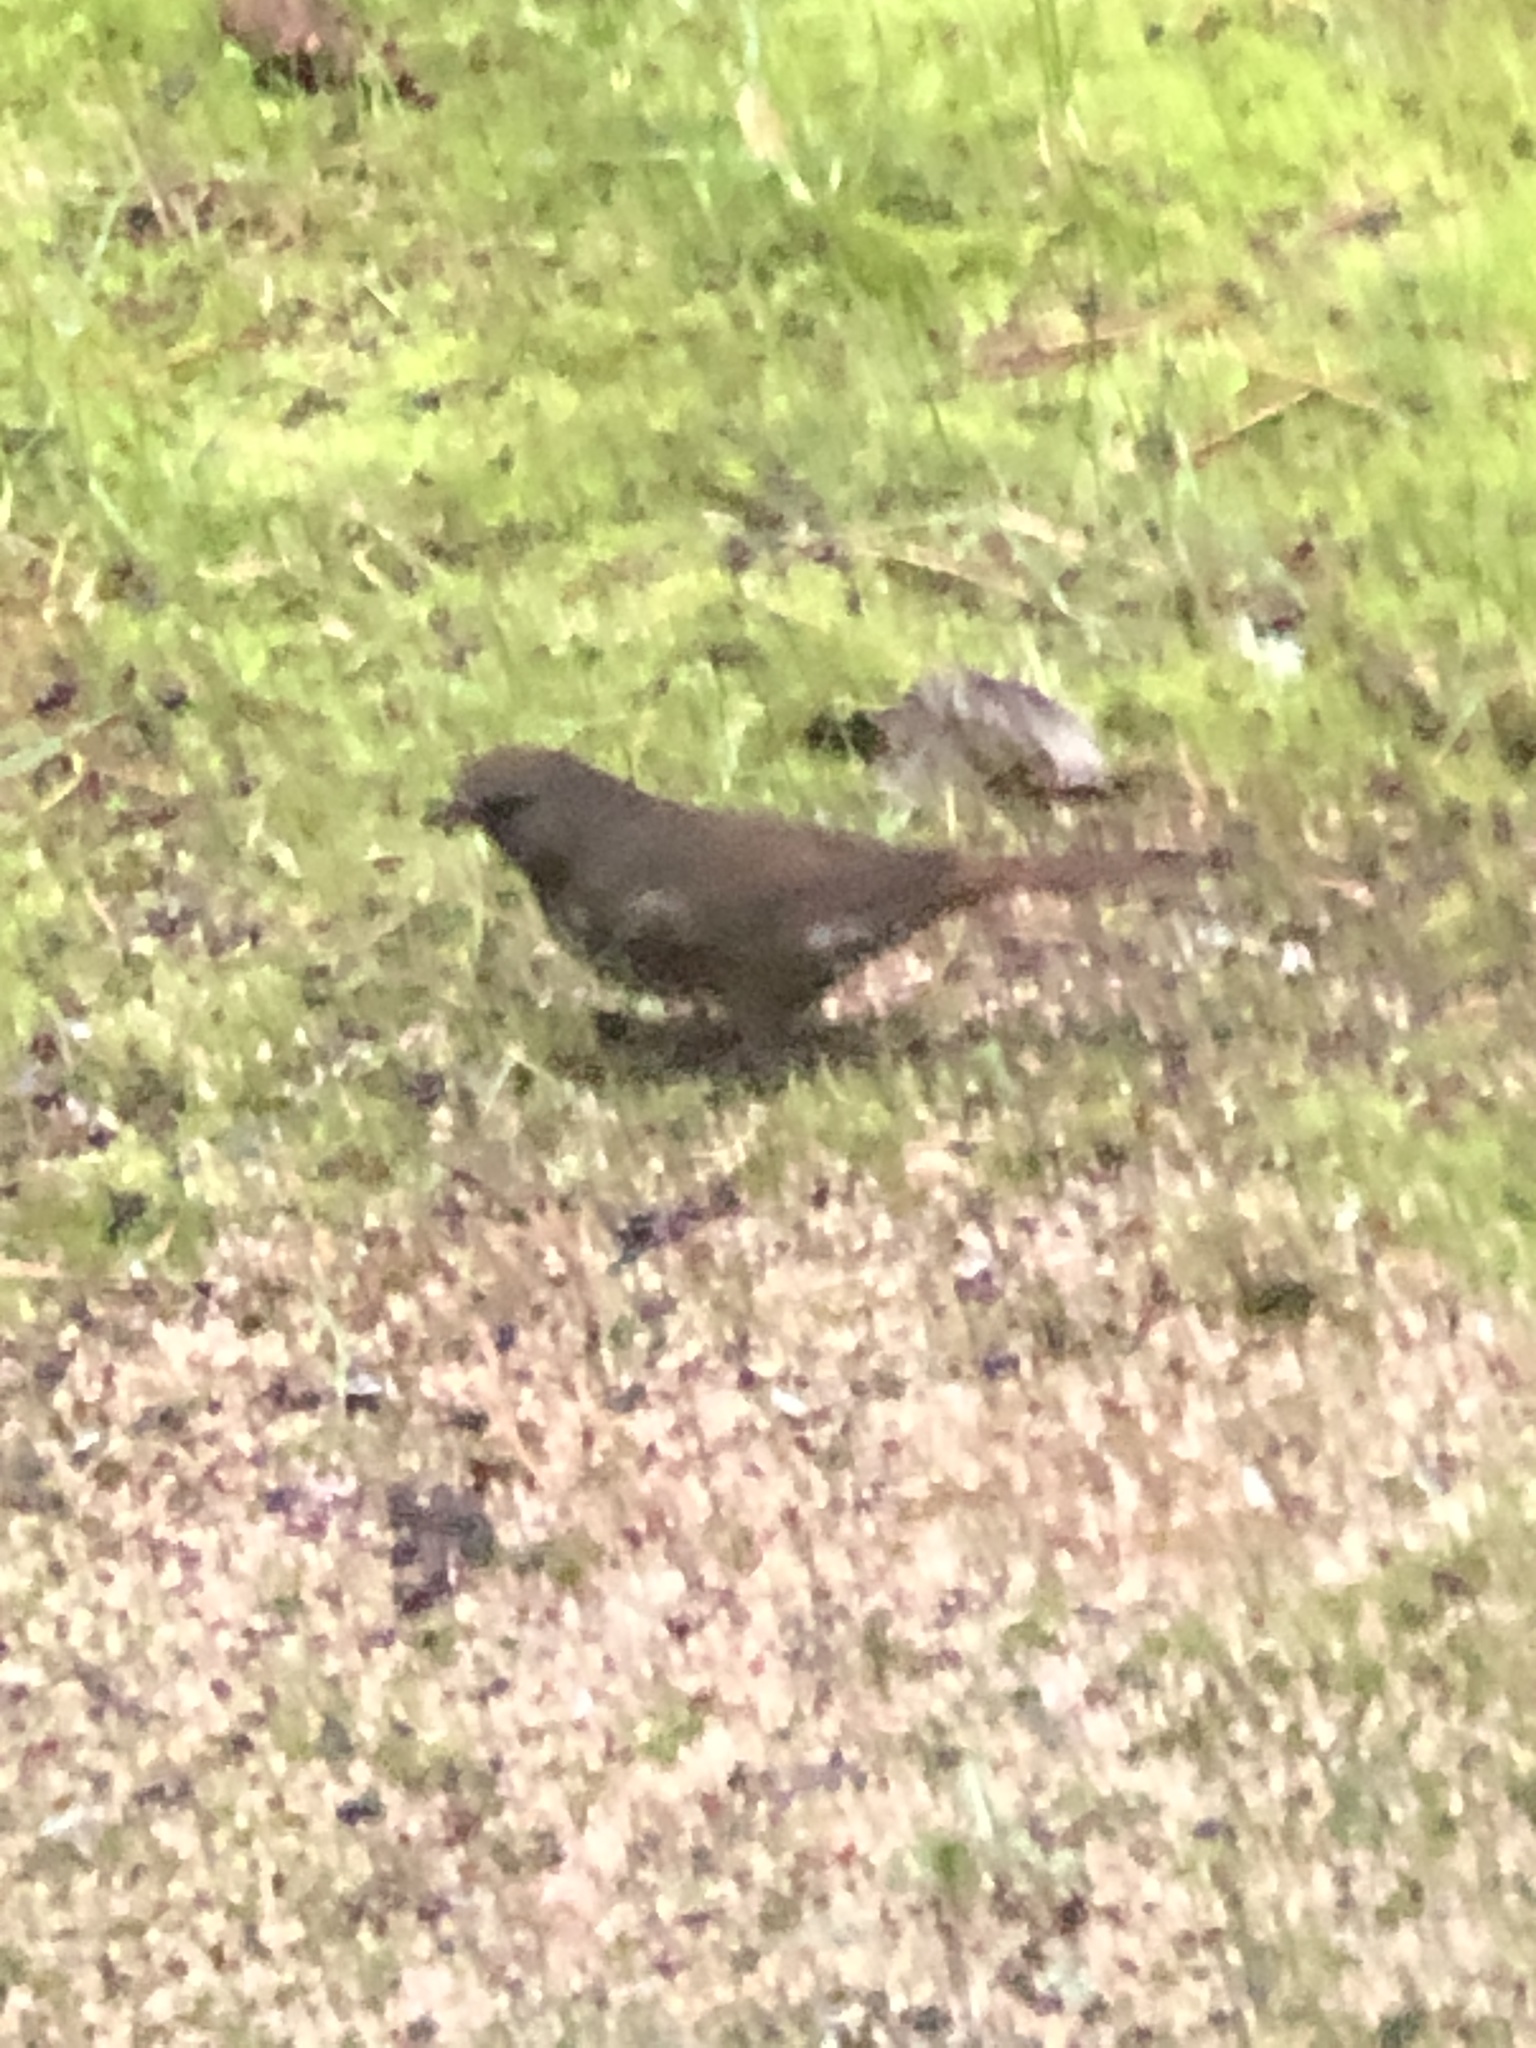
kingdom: Animalia
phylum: Chordata
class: Aves
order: Passeriformes
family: Passerellidae
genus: Passerella
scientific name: Passerella iliaca
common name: Fox sparrow
